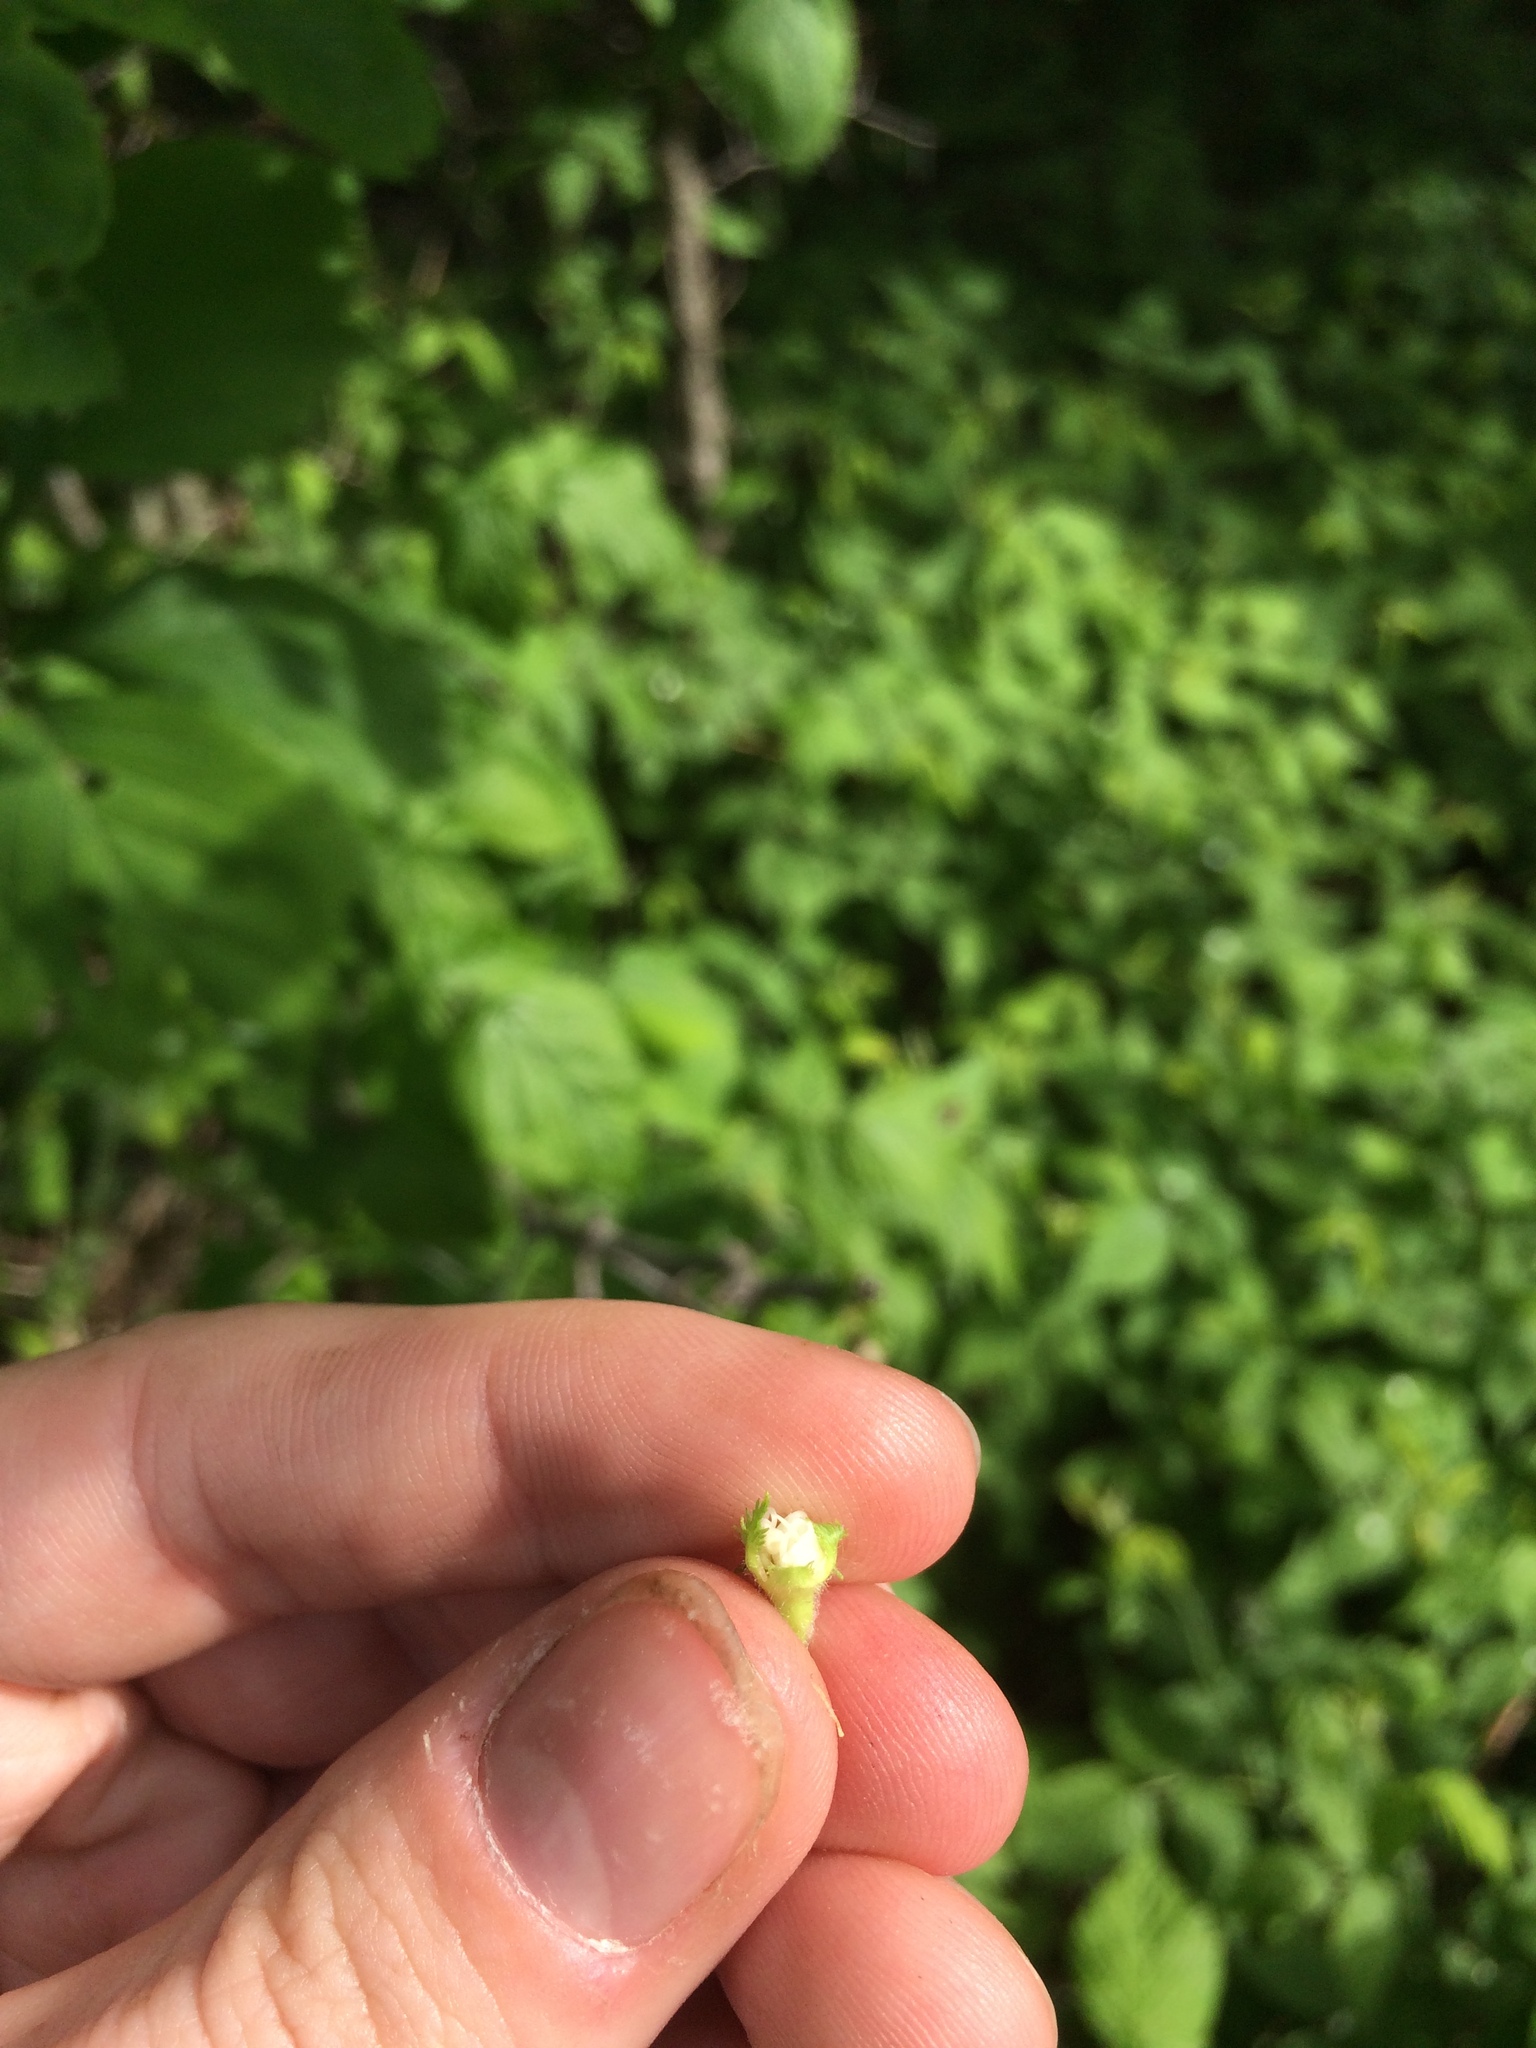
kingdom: Plantae
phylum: Tracheophyta
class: Magnoliopsida
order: Rosales
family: Rosaceae
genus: Crataegus
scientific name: Crataegus macracantha
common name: Large-thorn hawthorn
